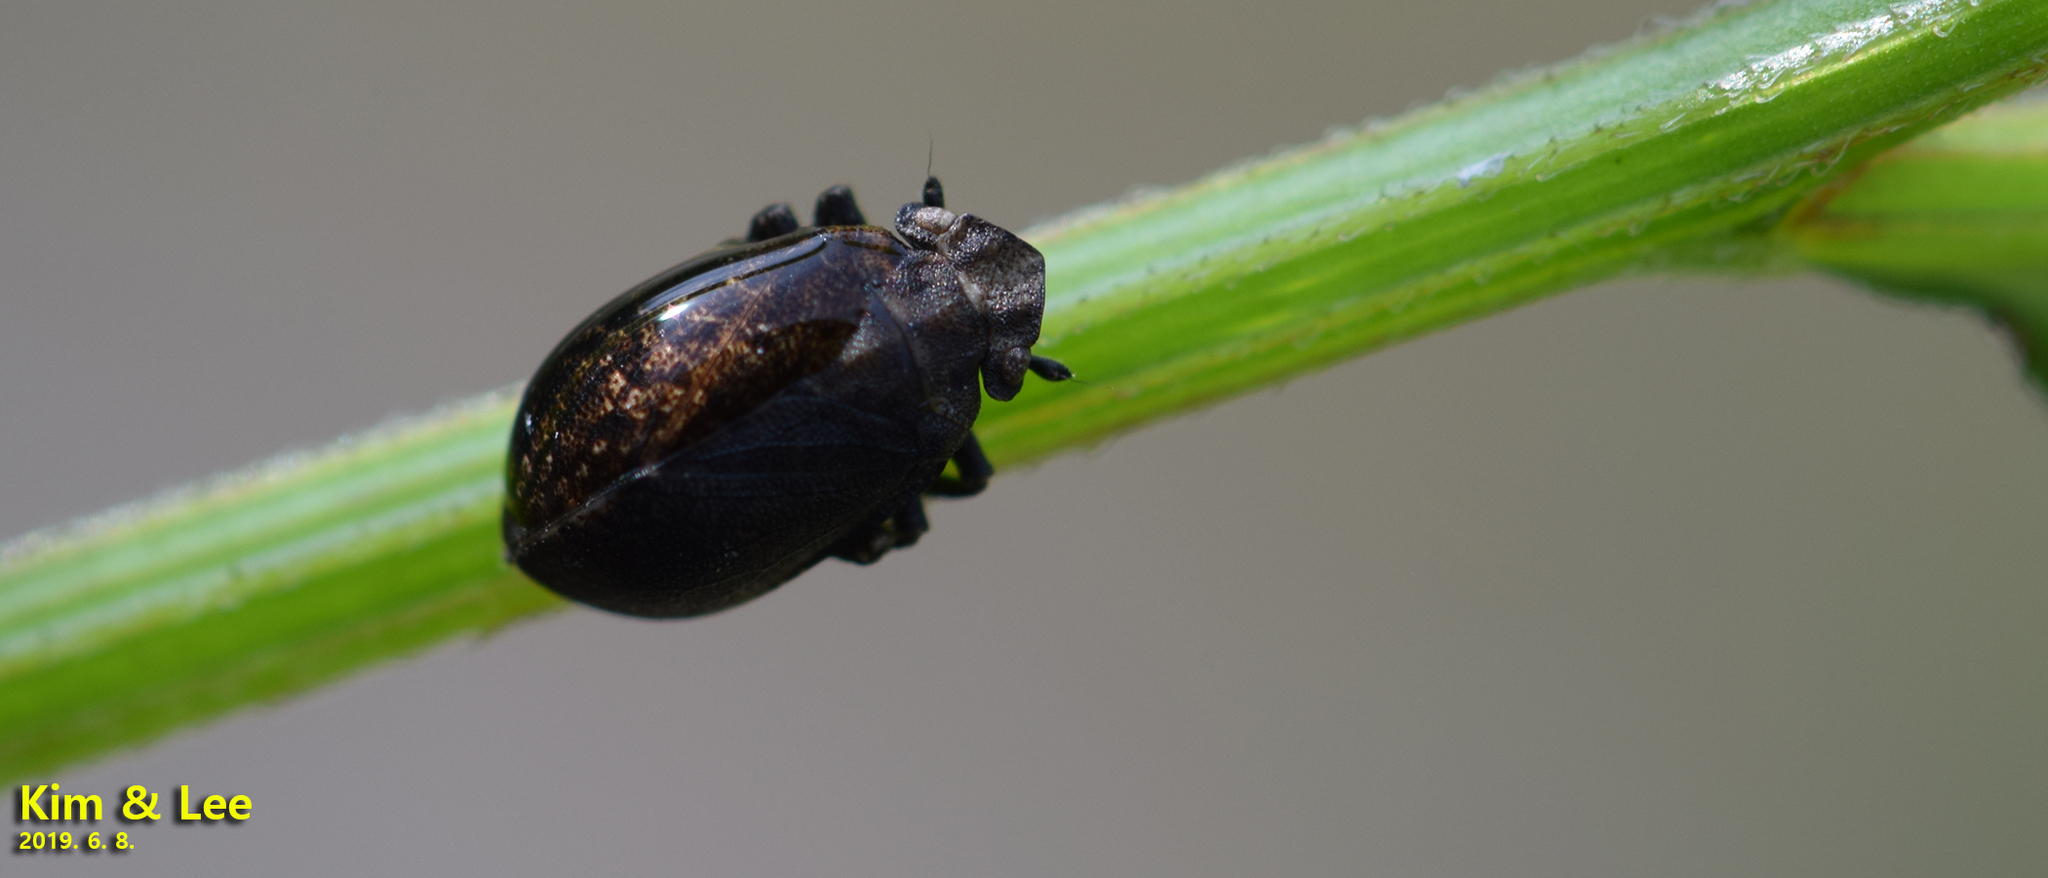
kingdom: Animalia
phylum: Arthropoda
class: Insecta
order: Hemiptera
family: Tettigometridae
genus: Tettigometra
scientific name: Tettigometra fusca
